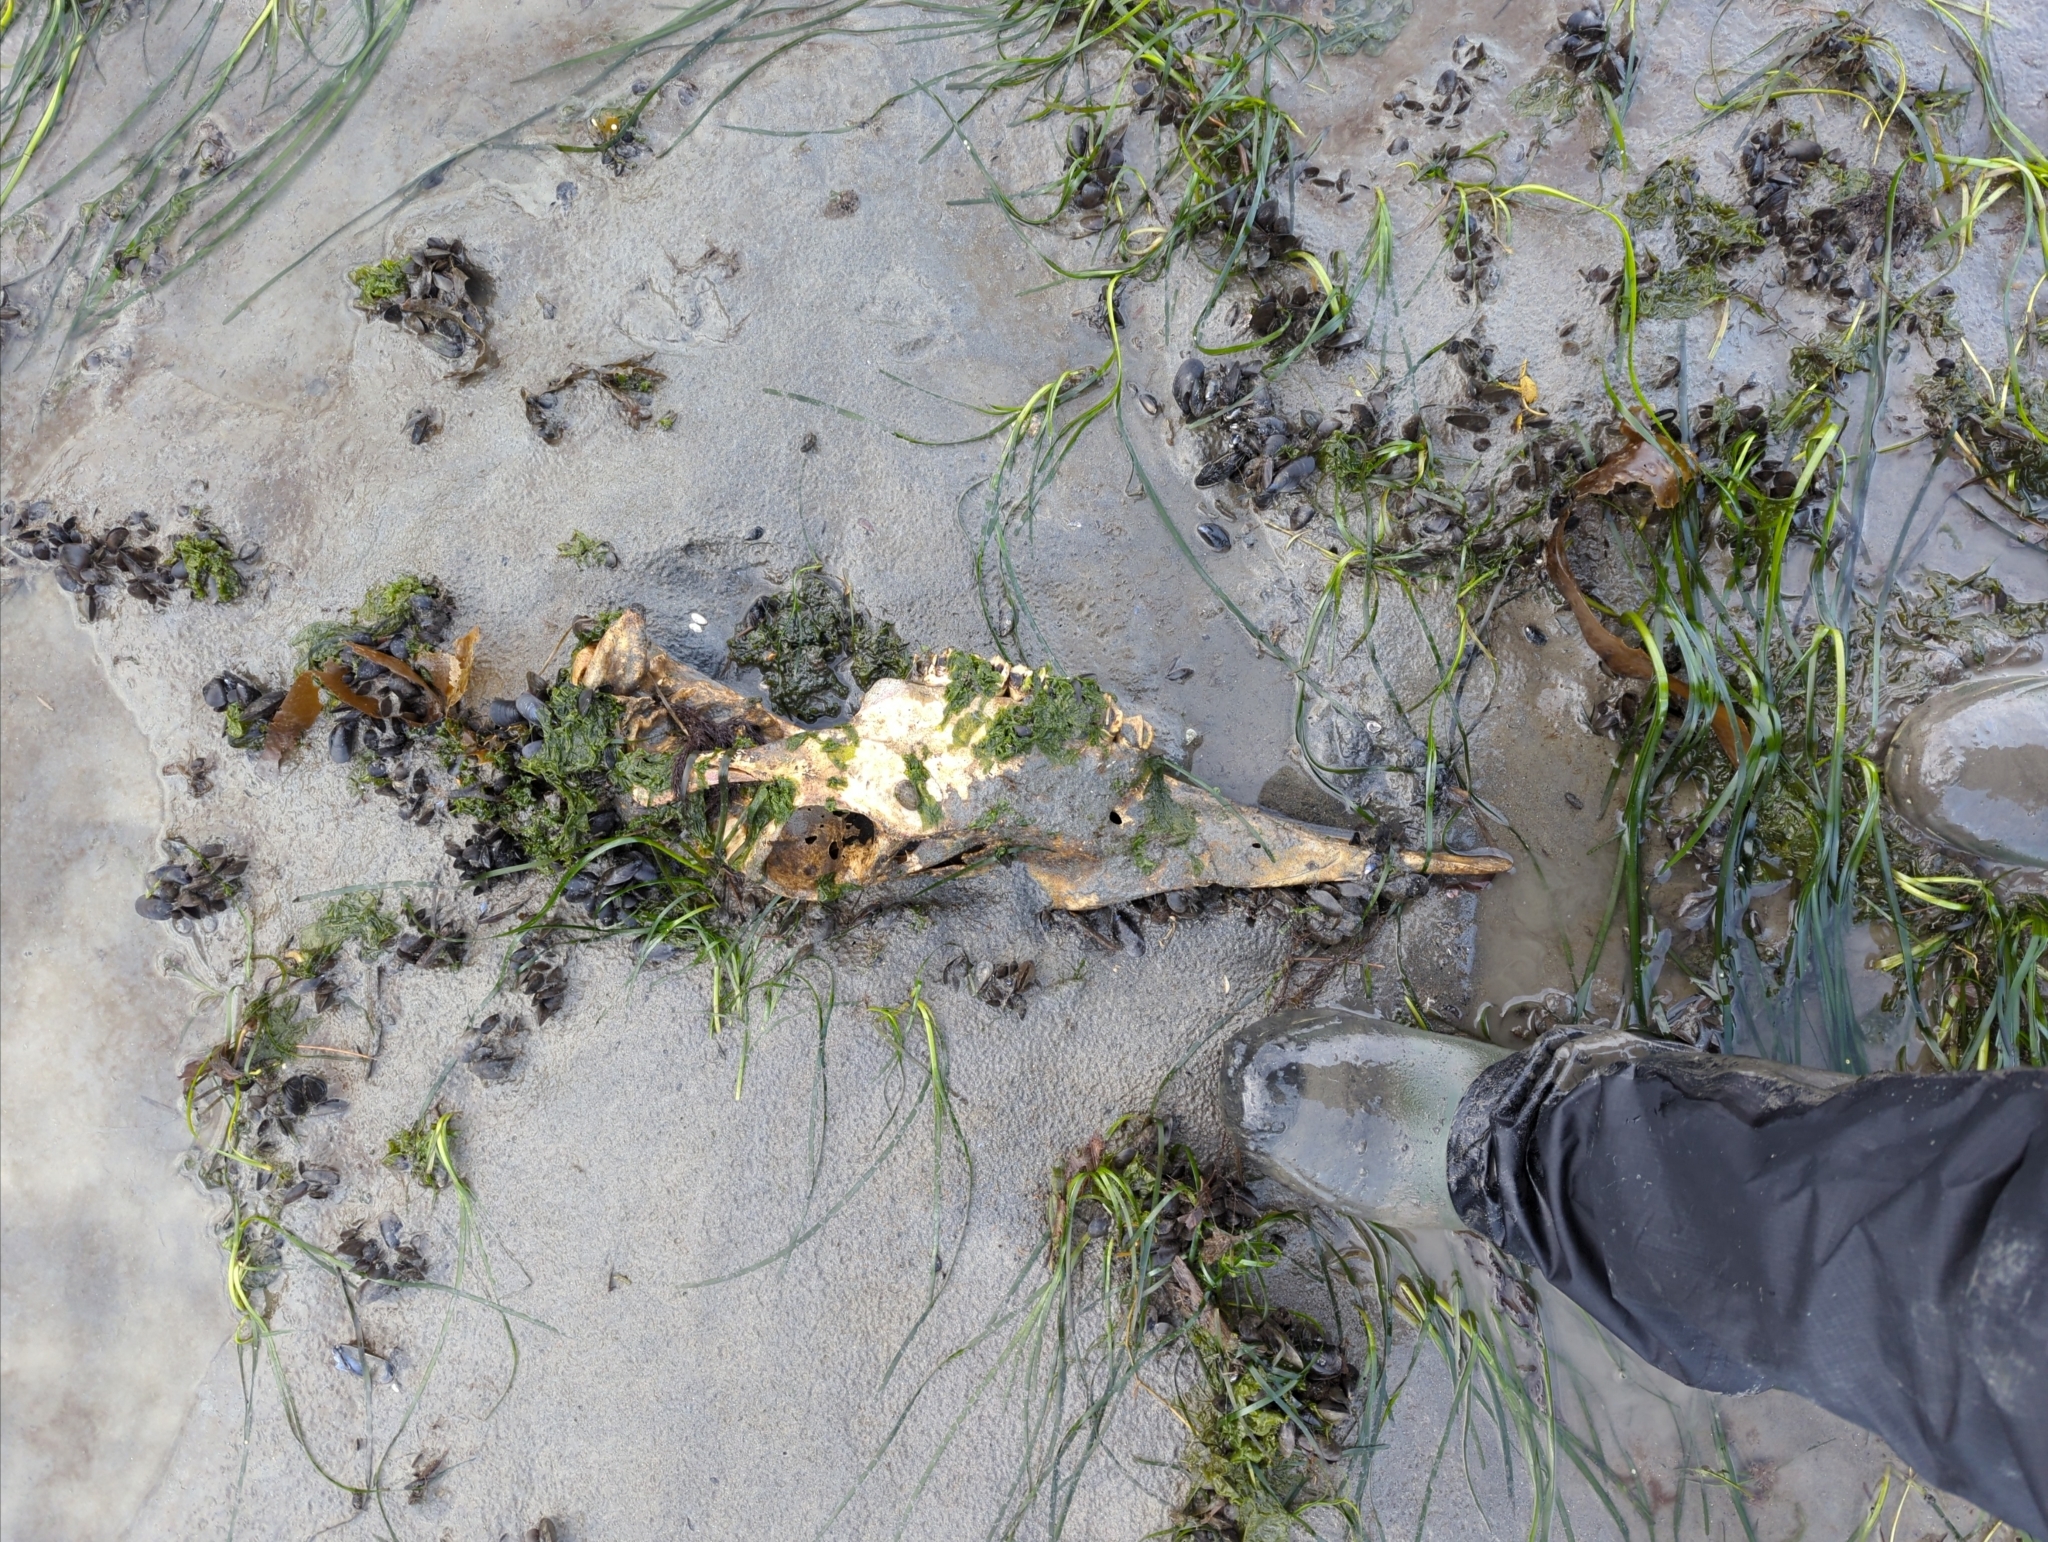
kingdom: Animalia
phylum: Chordata
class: Mammalia
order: Artiodactyla
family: Cervidae
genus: Alces
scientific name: Alces alces
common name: Moose
